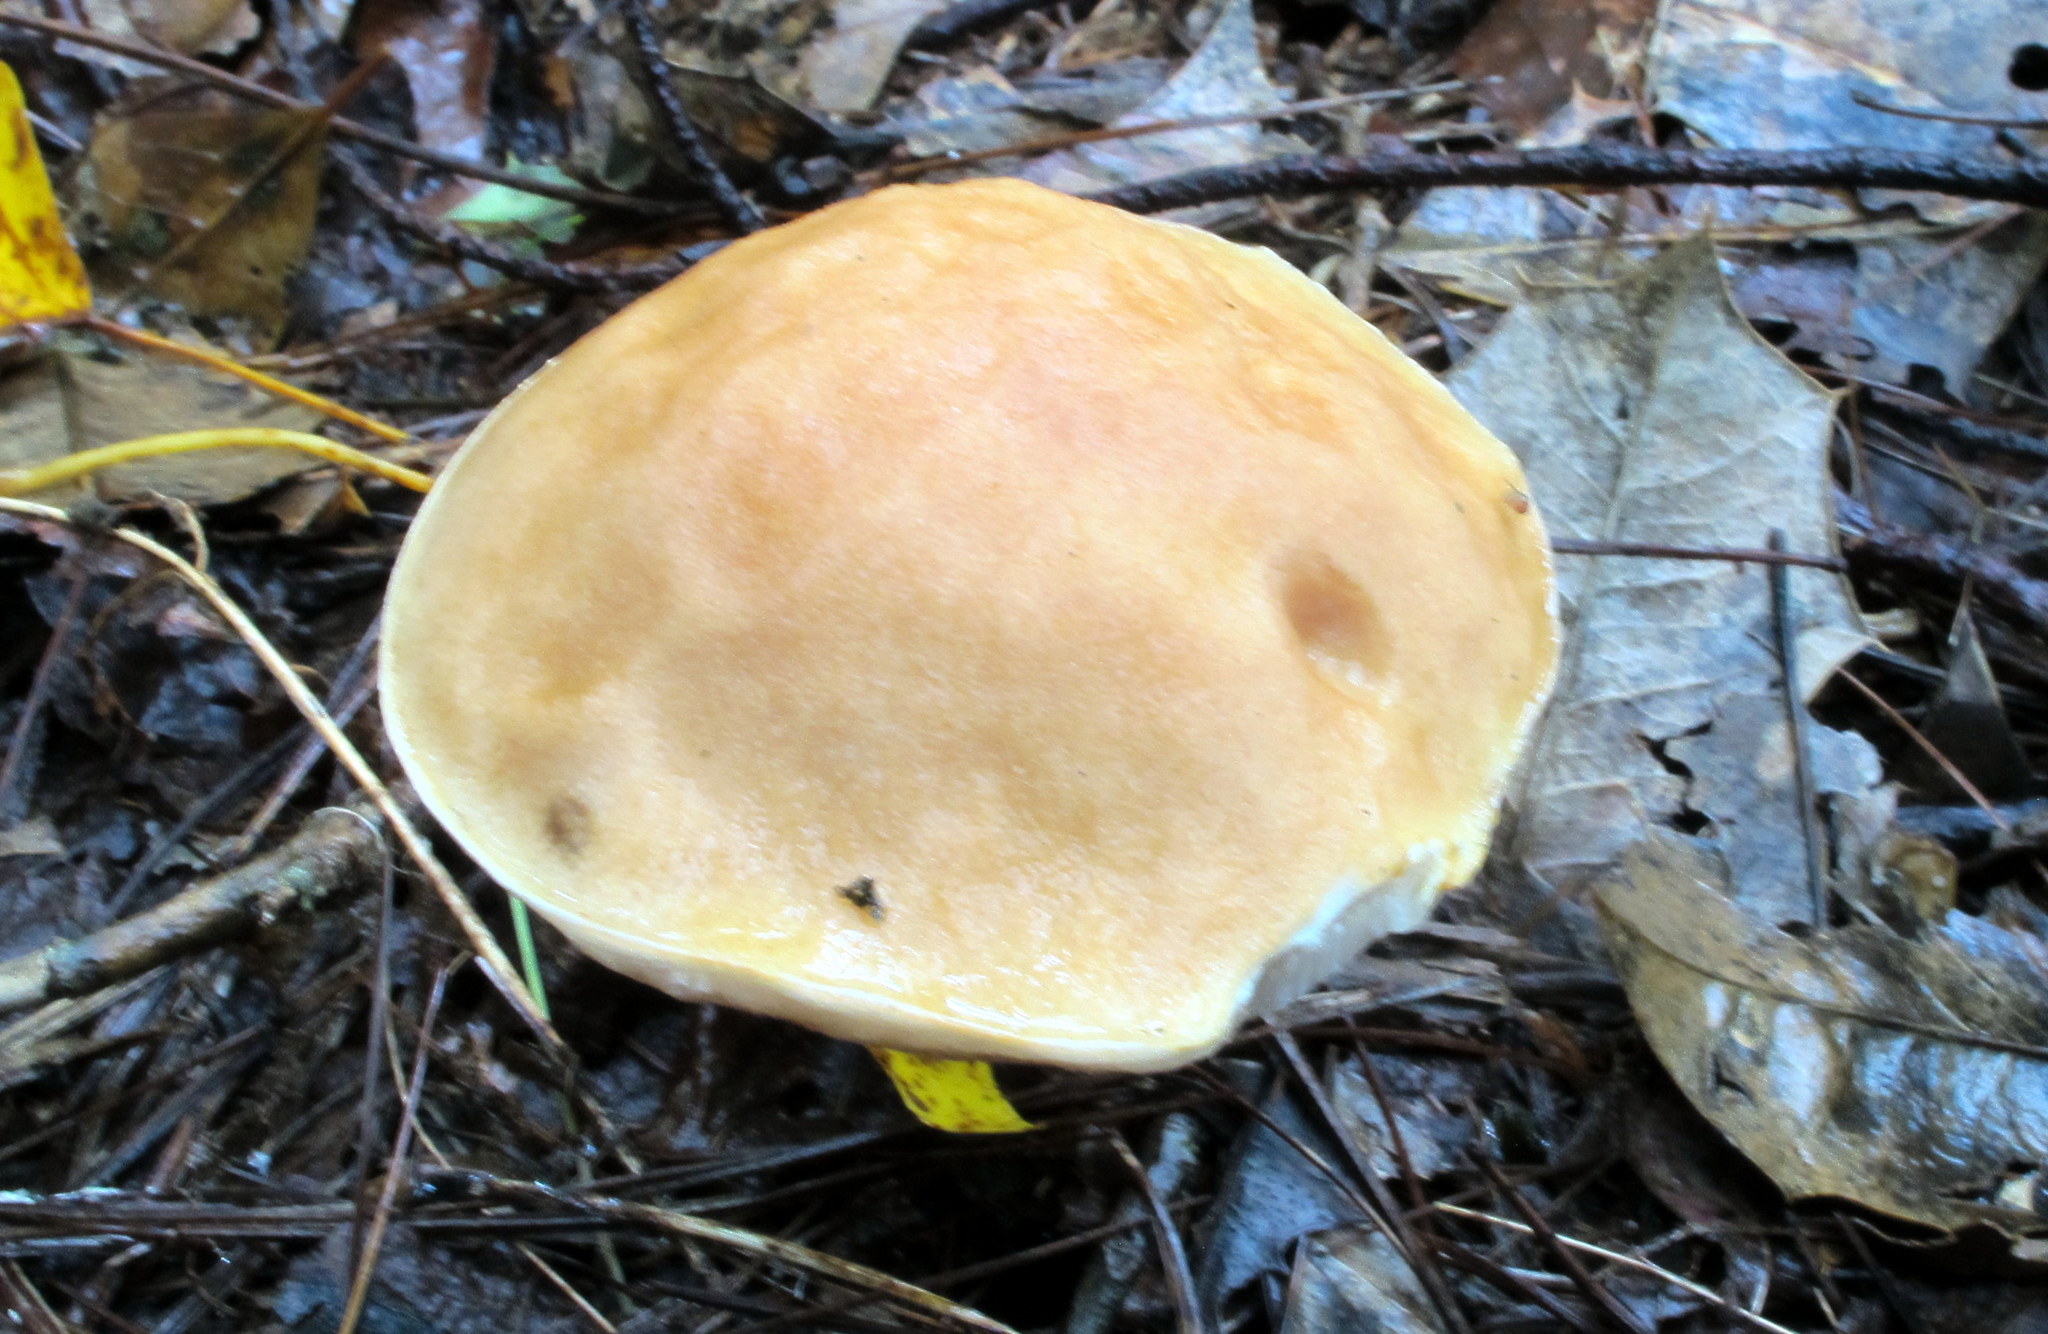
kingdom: Fungi
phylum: Basidiomycota
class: Agaricomycetes
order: Boletales
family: Boletaceae
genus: Austroboletus
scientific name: Austroboletus gracilis
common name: Graceful bolete
